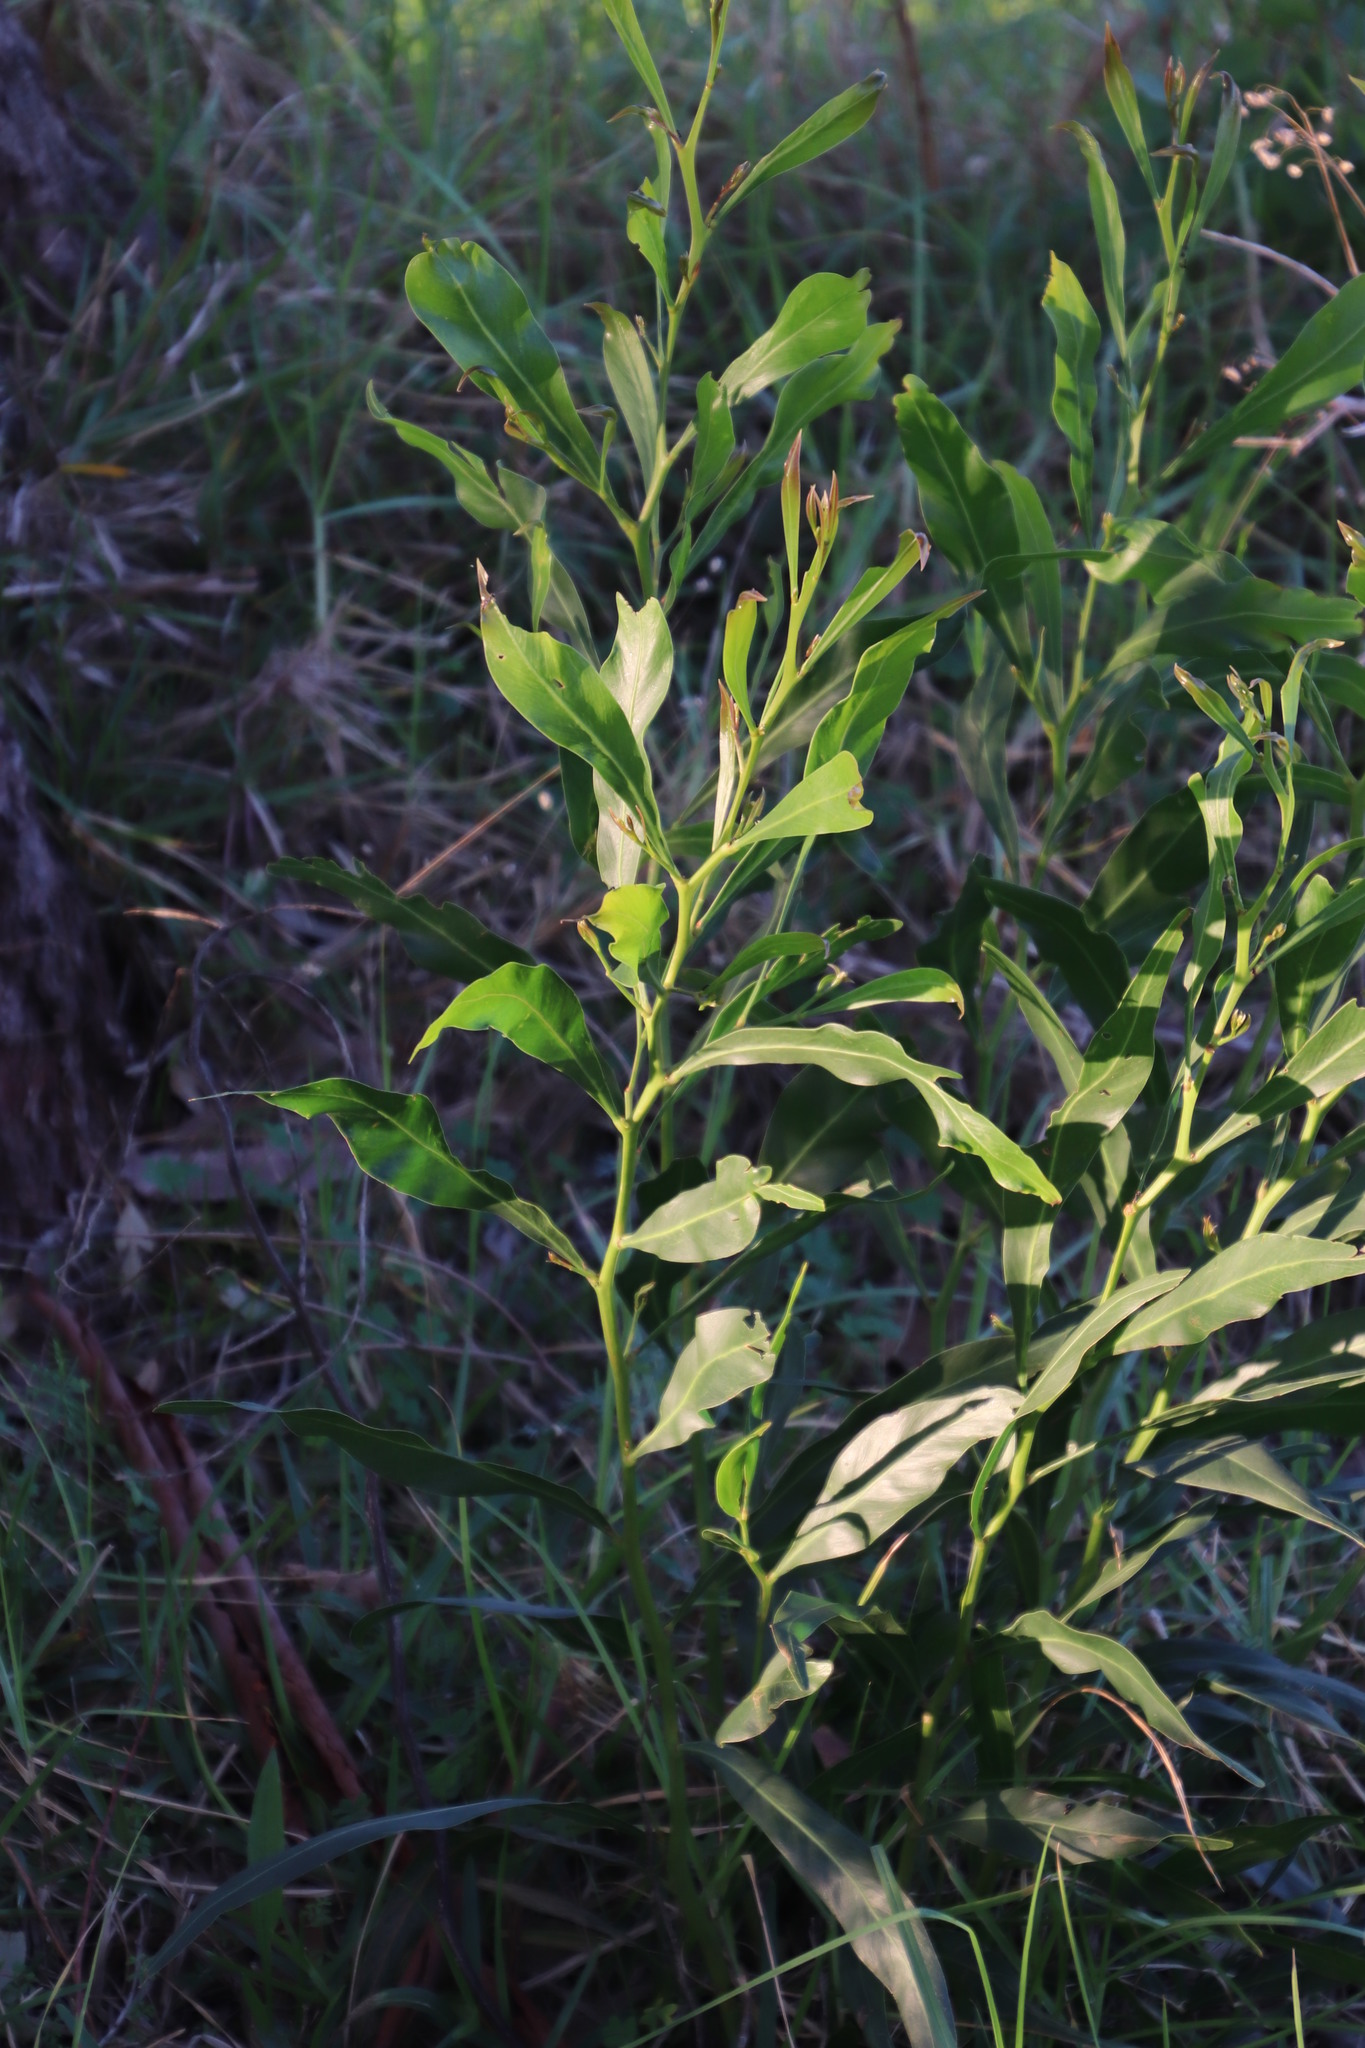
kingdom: Plantae
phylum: Tracheophyta
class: Magnoliopsida
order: Fabales
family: Fabaceae
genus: Acacia
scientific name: Acacia saligna
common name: Orange wattle
